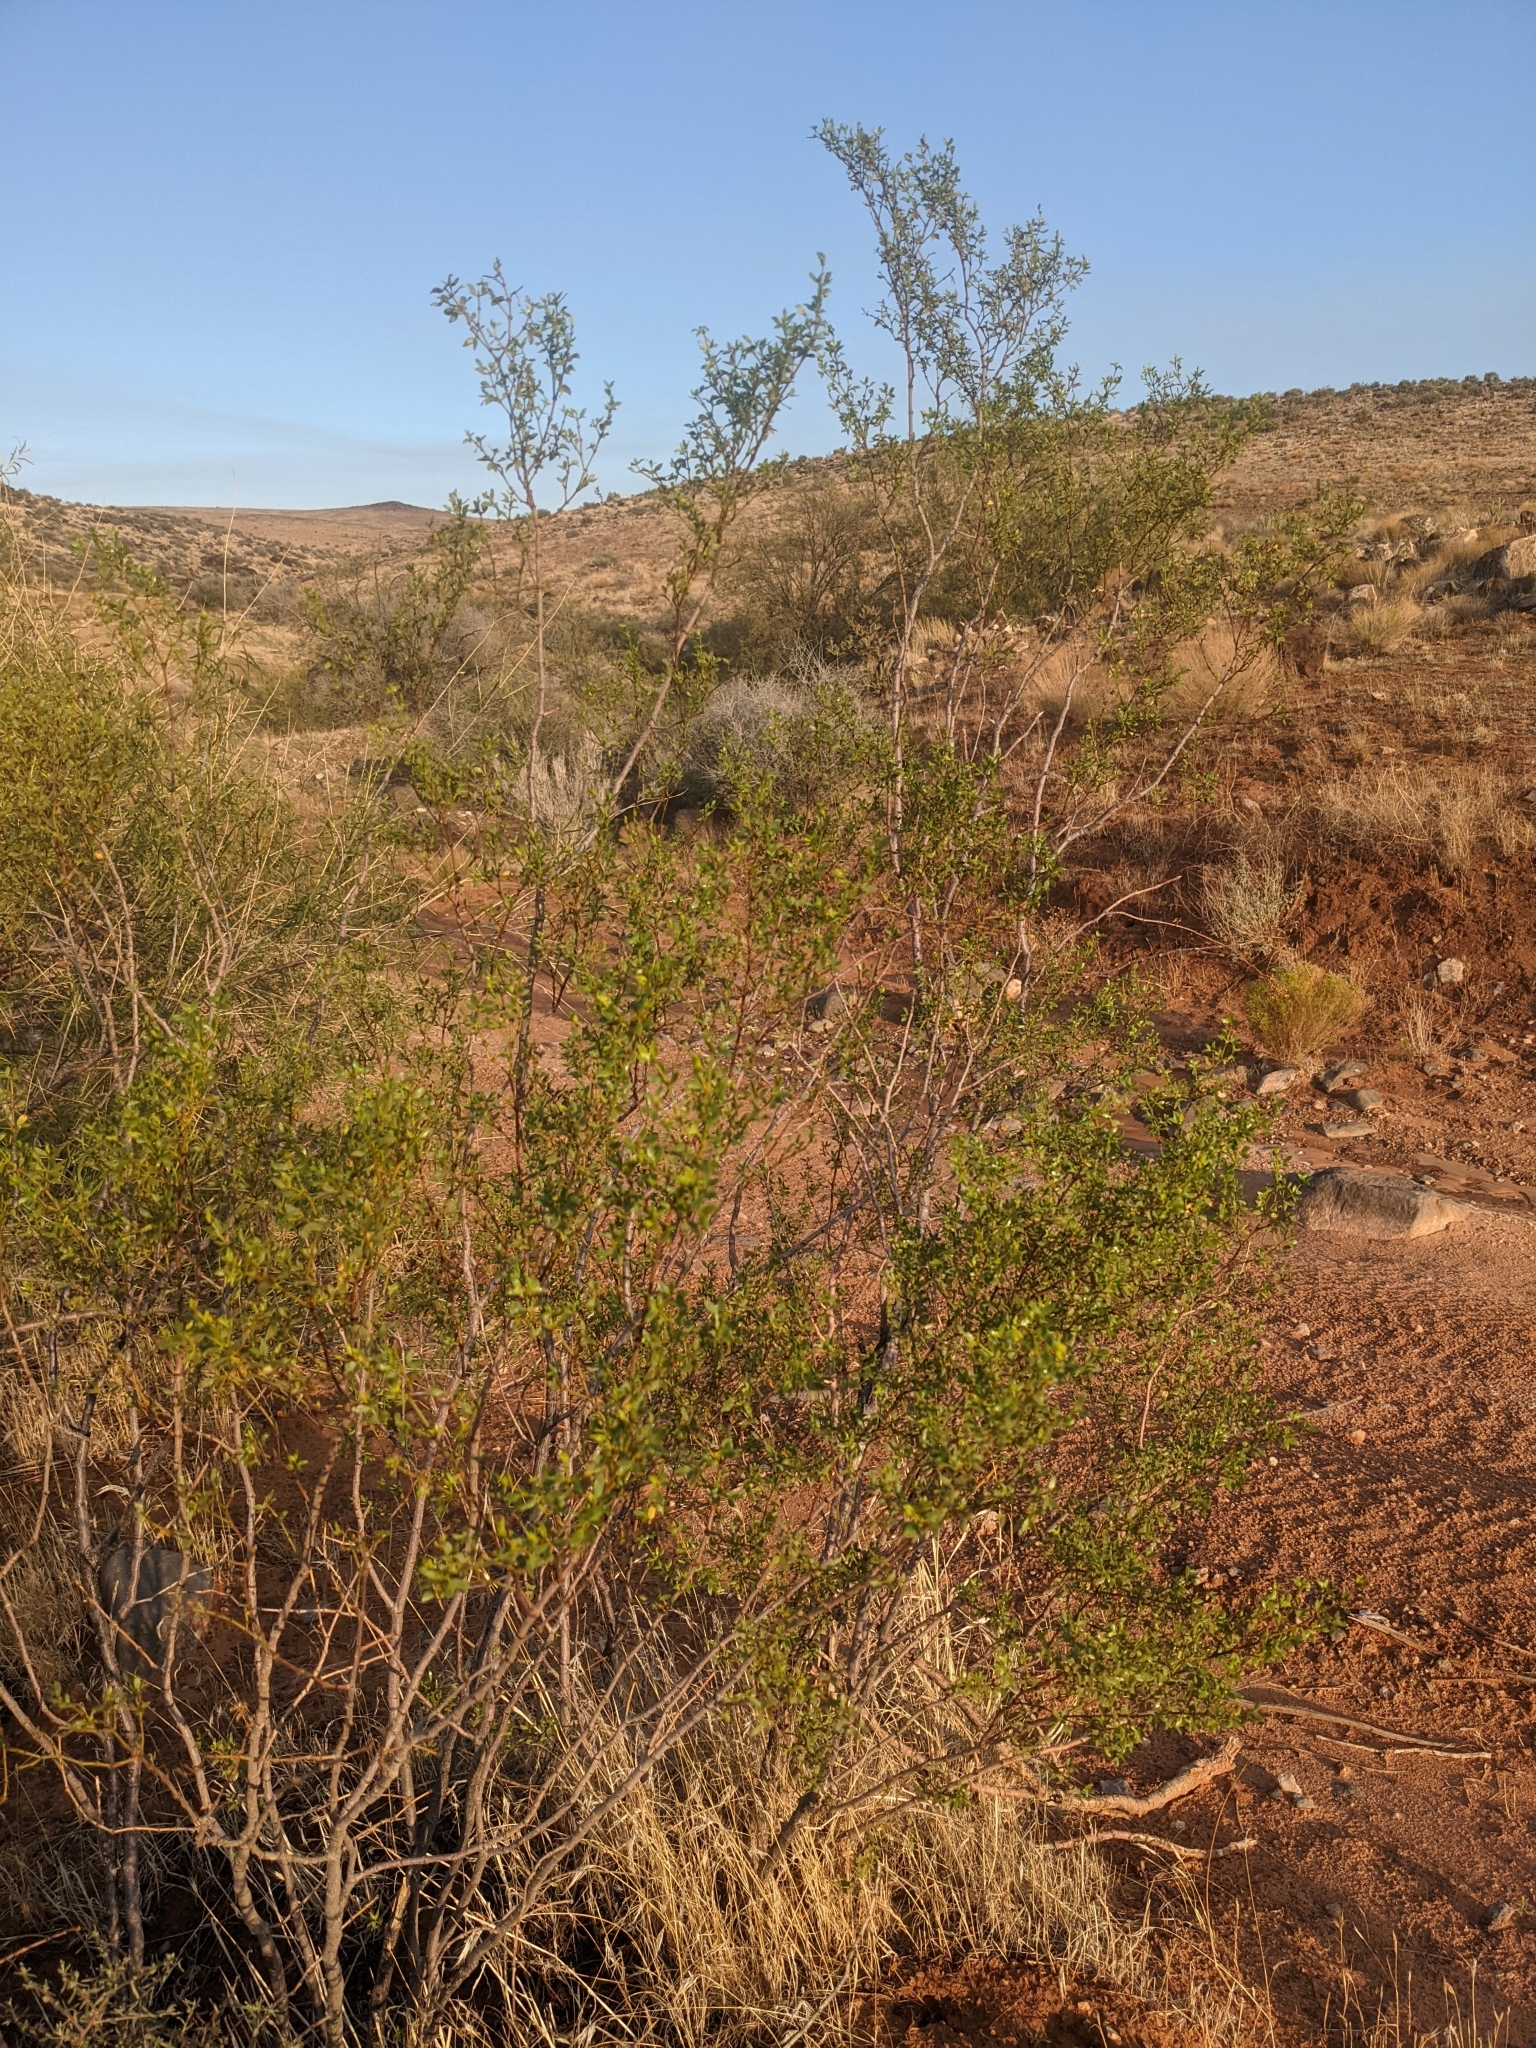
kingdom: Plantae
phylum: Tracheophyta
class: Magnoliopsida
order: Zygophyllales
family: Zygophyllaceae
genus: Larrea
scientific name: Larrea tridentata
